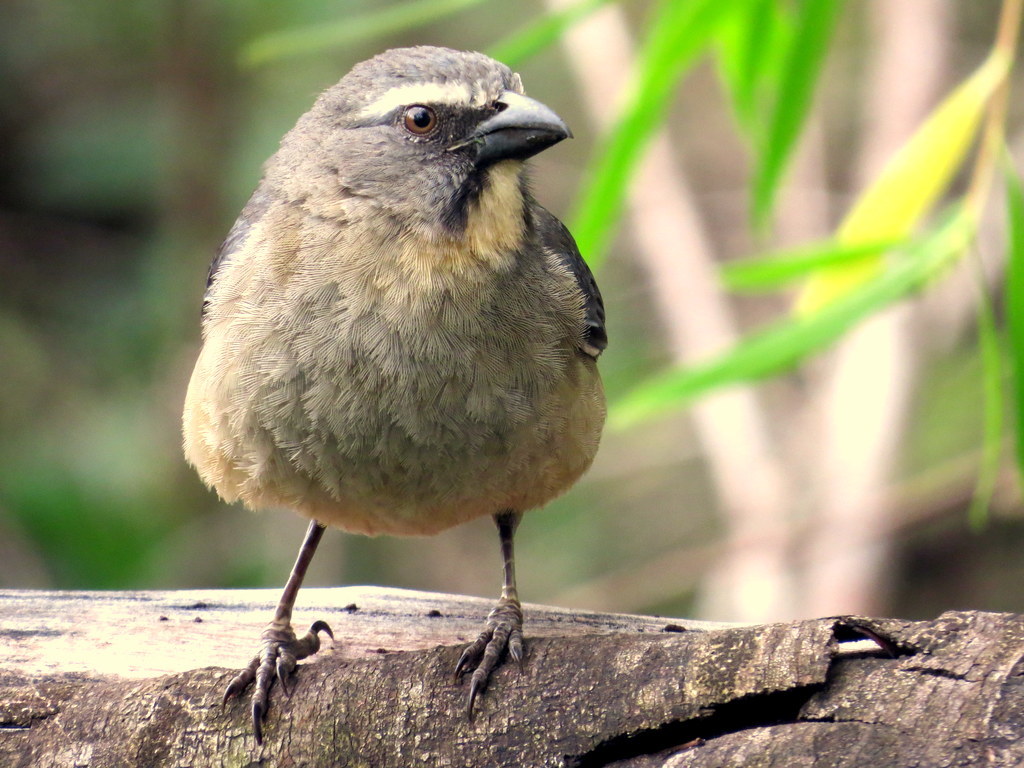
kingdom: Animalia
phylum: Chordata
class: Aves
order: Passeriformes
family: Thraupidae
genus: Saltator
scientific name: Saltator coerulescens
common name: Grayish saltator
